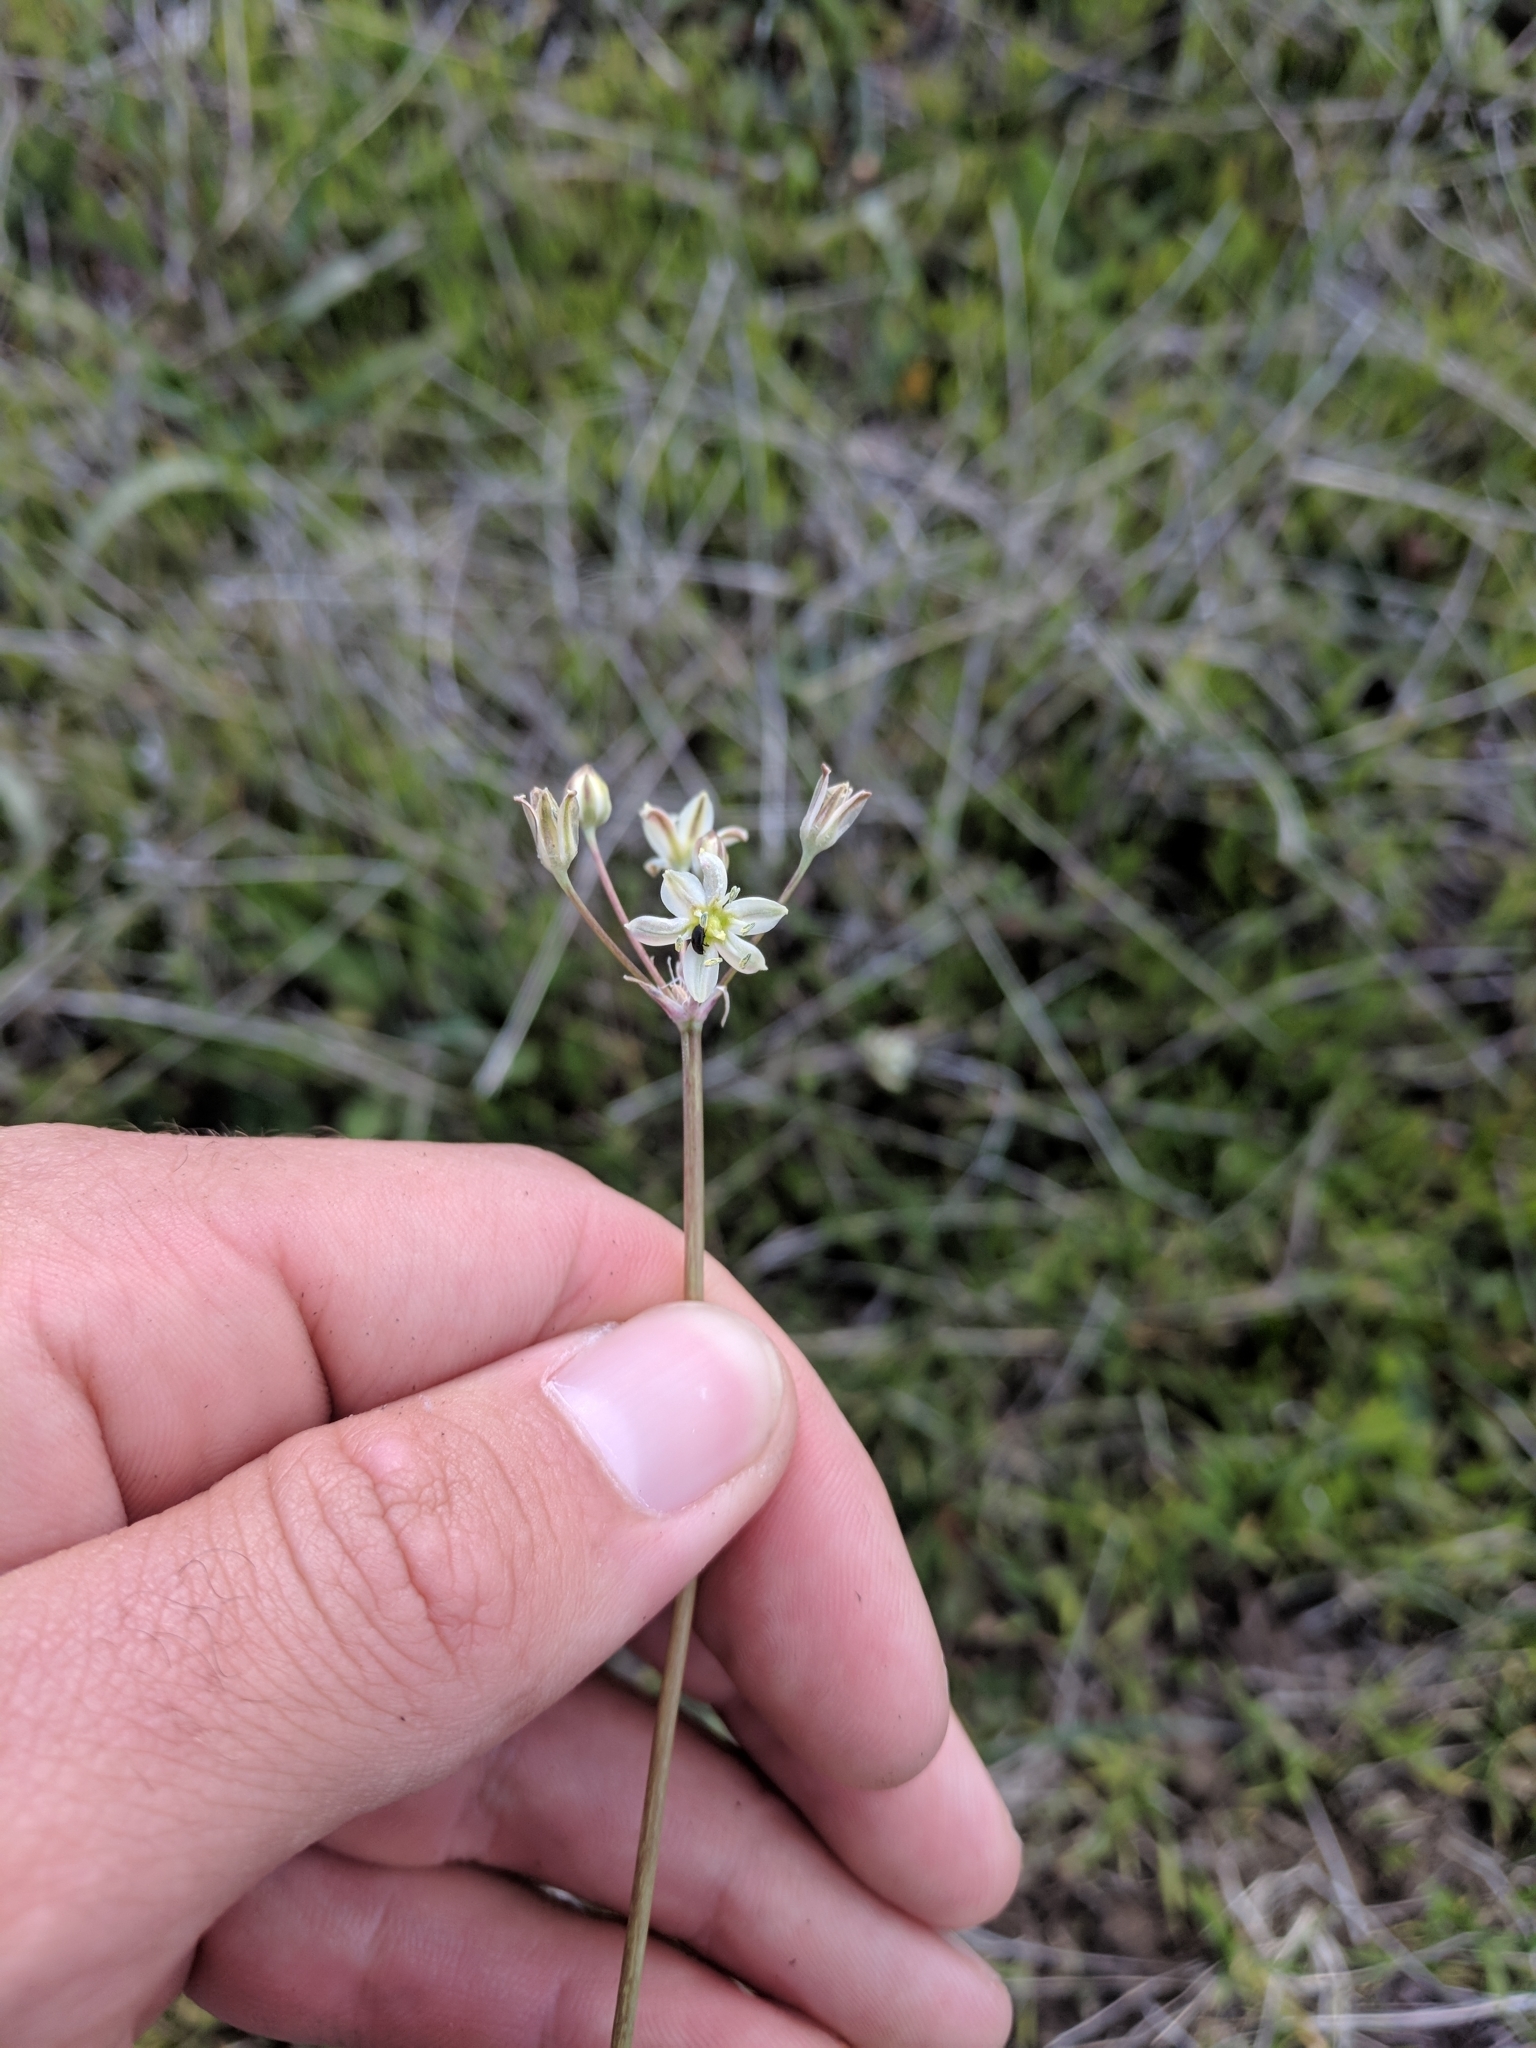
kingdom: Plantae
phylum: Tracheophyta
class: Liliopsida
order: Asparagales
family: Asparagaceae
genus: Muilla
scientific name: Muilla maritima
